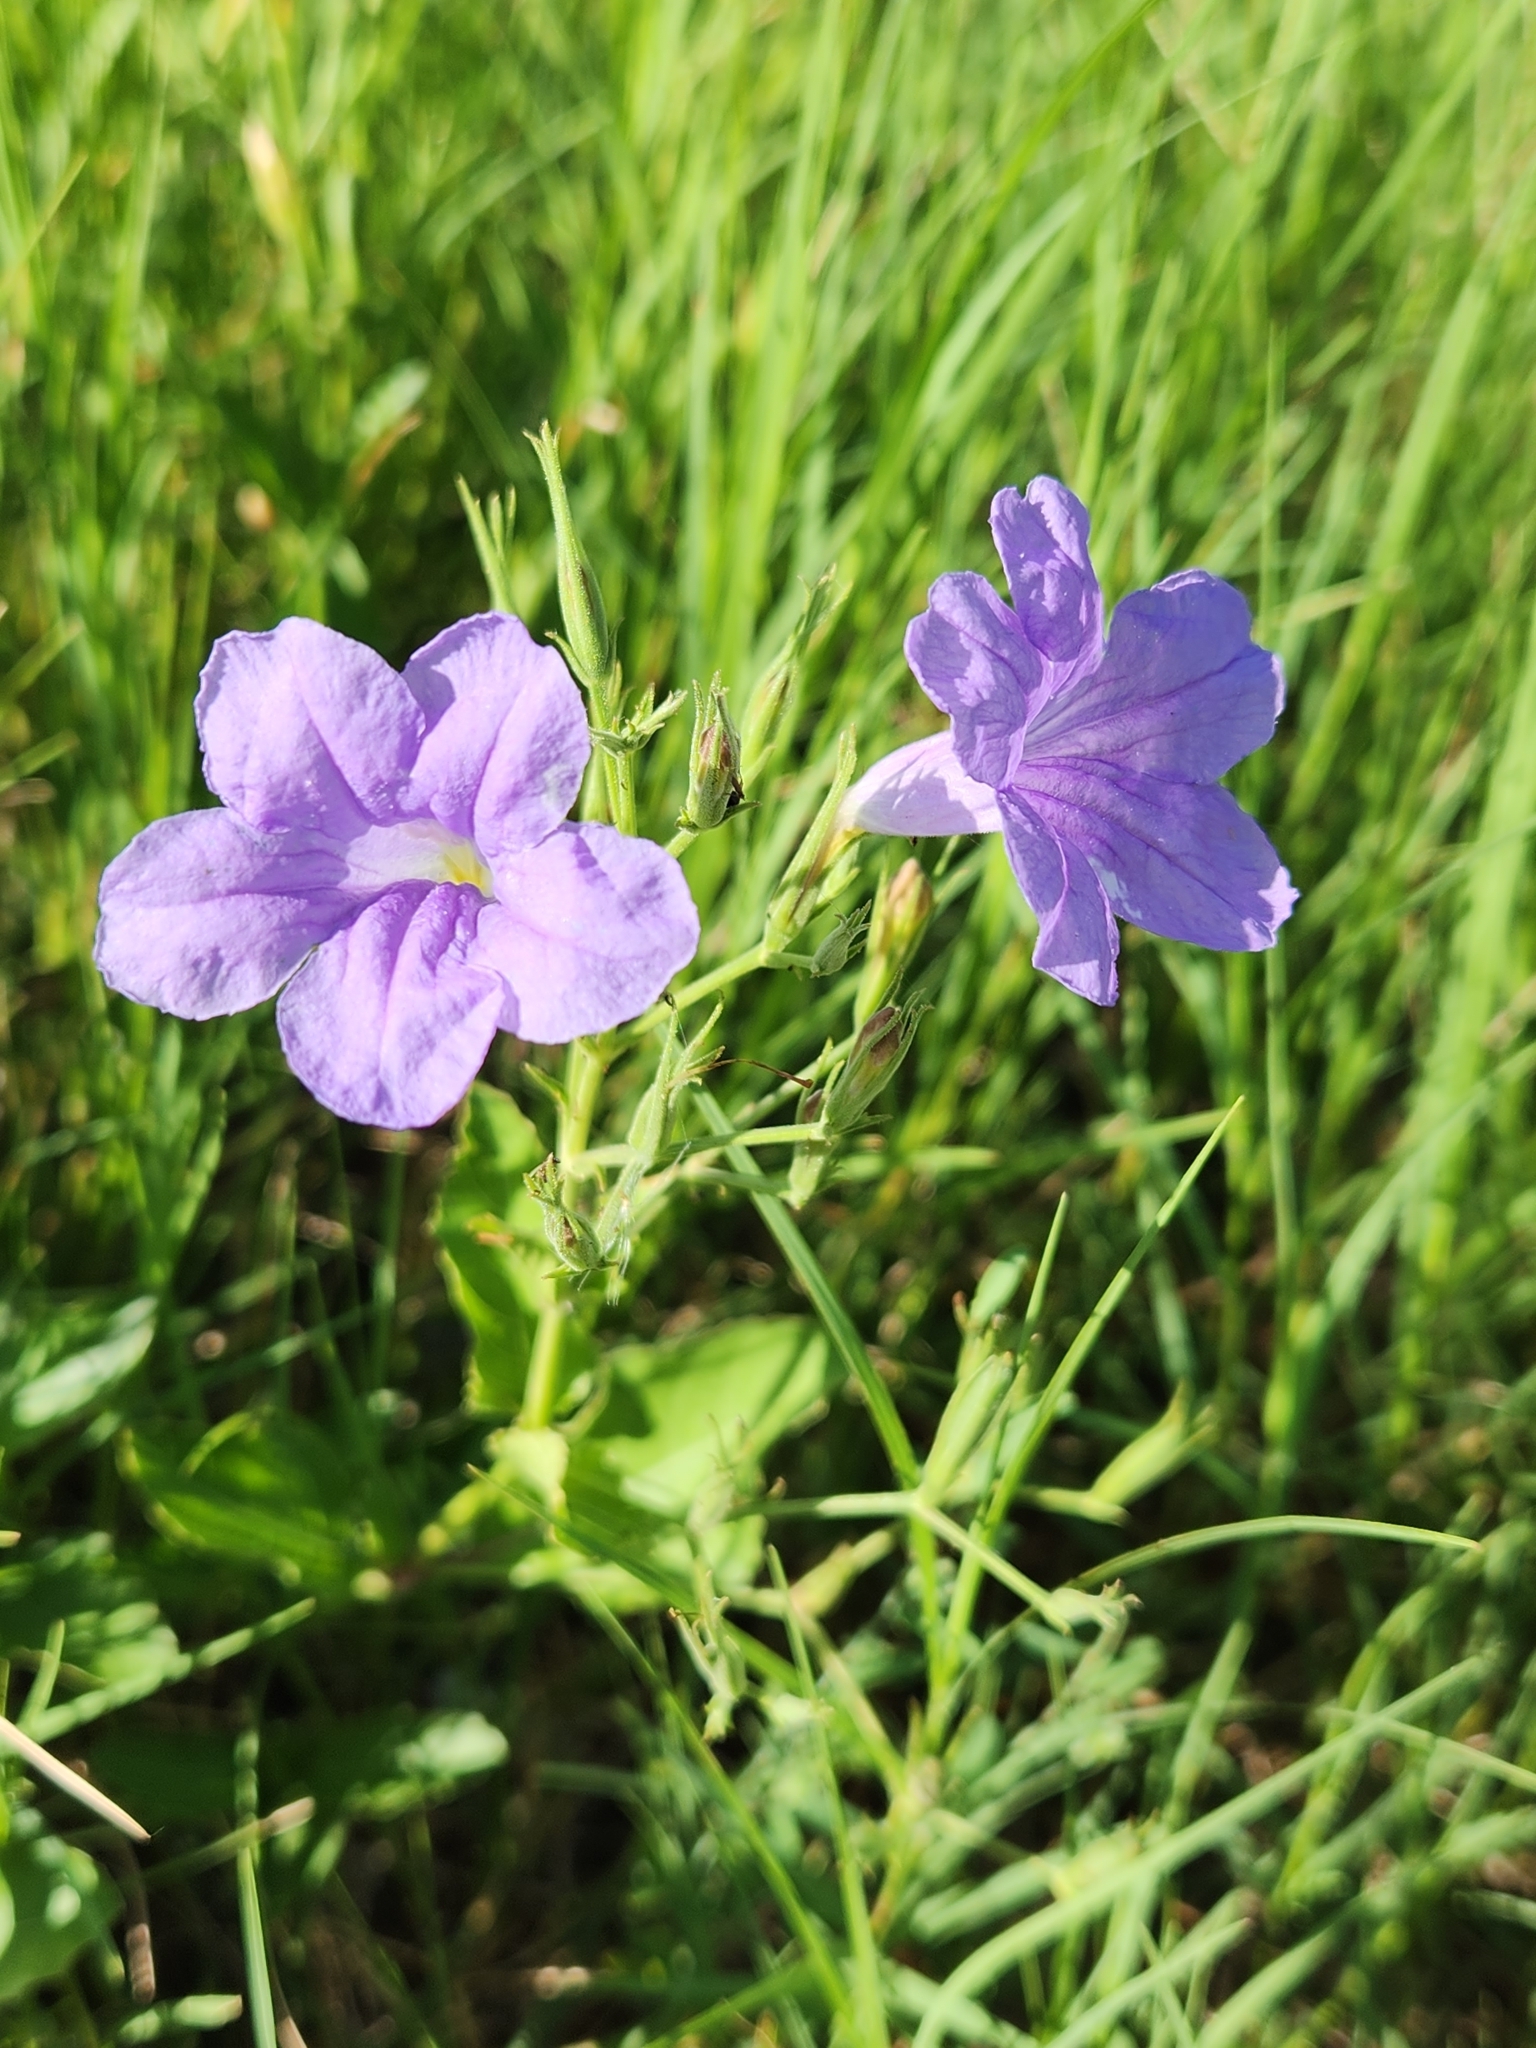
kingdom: Plantae
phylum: Tracheophyta
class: Magnoliopsida
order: Lamiales
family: Acanthaceae
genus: Ruellia
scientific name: Ruellia ciliatiflora
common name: Hairyflower wild petunia
